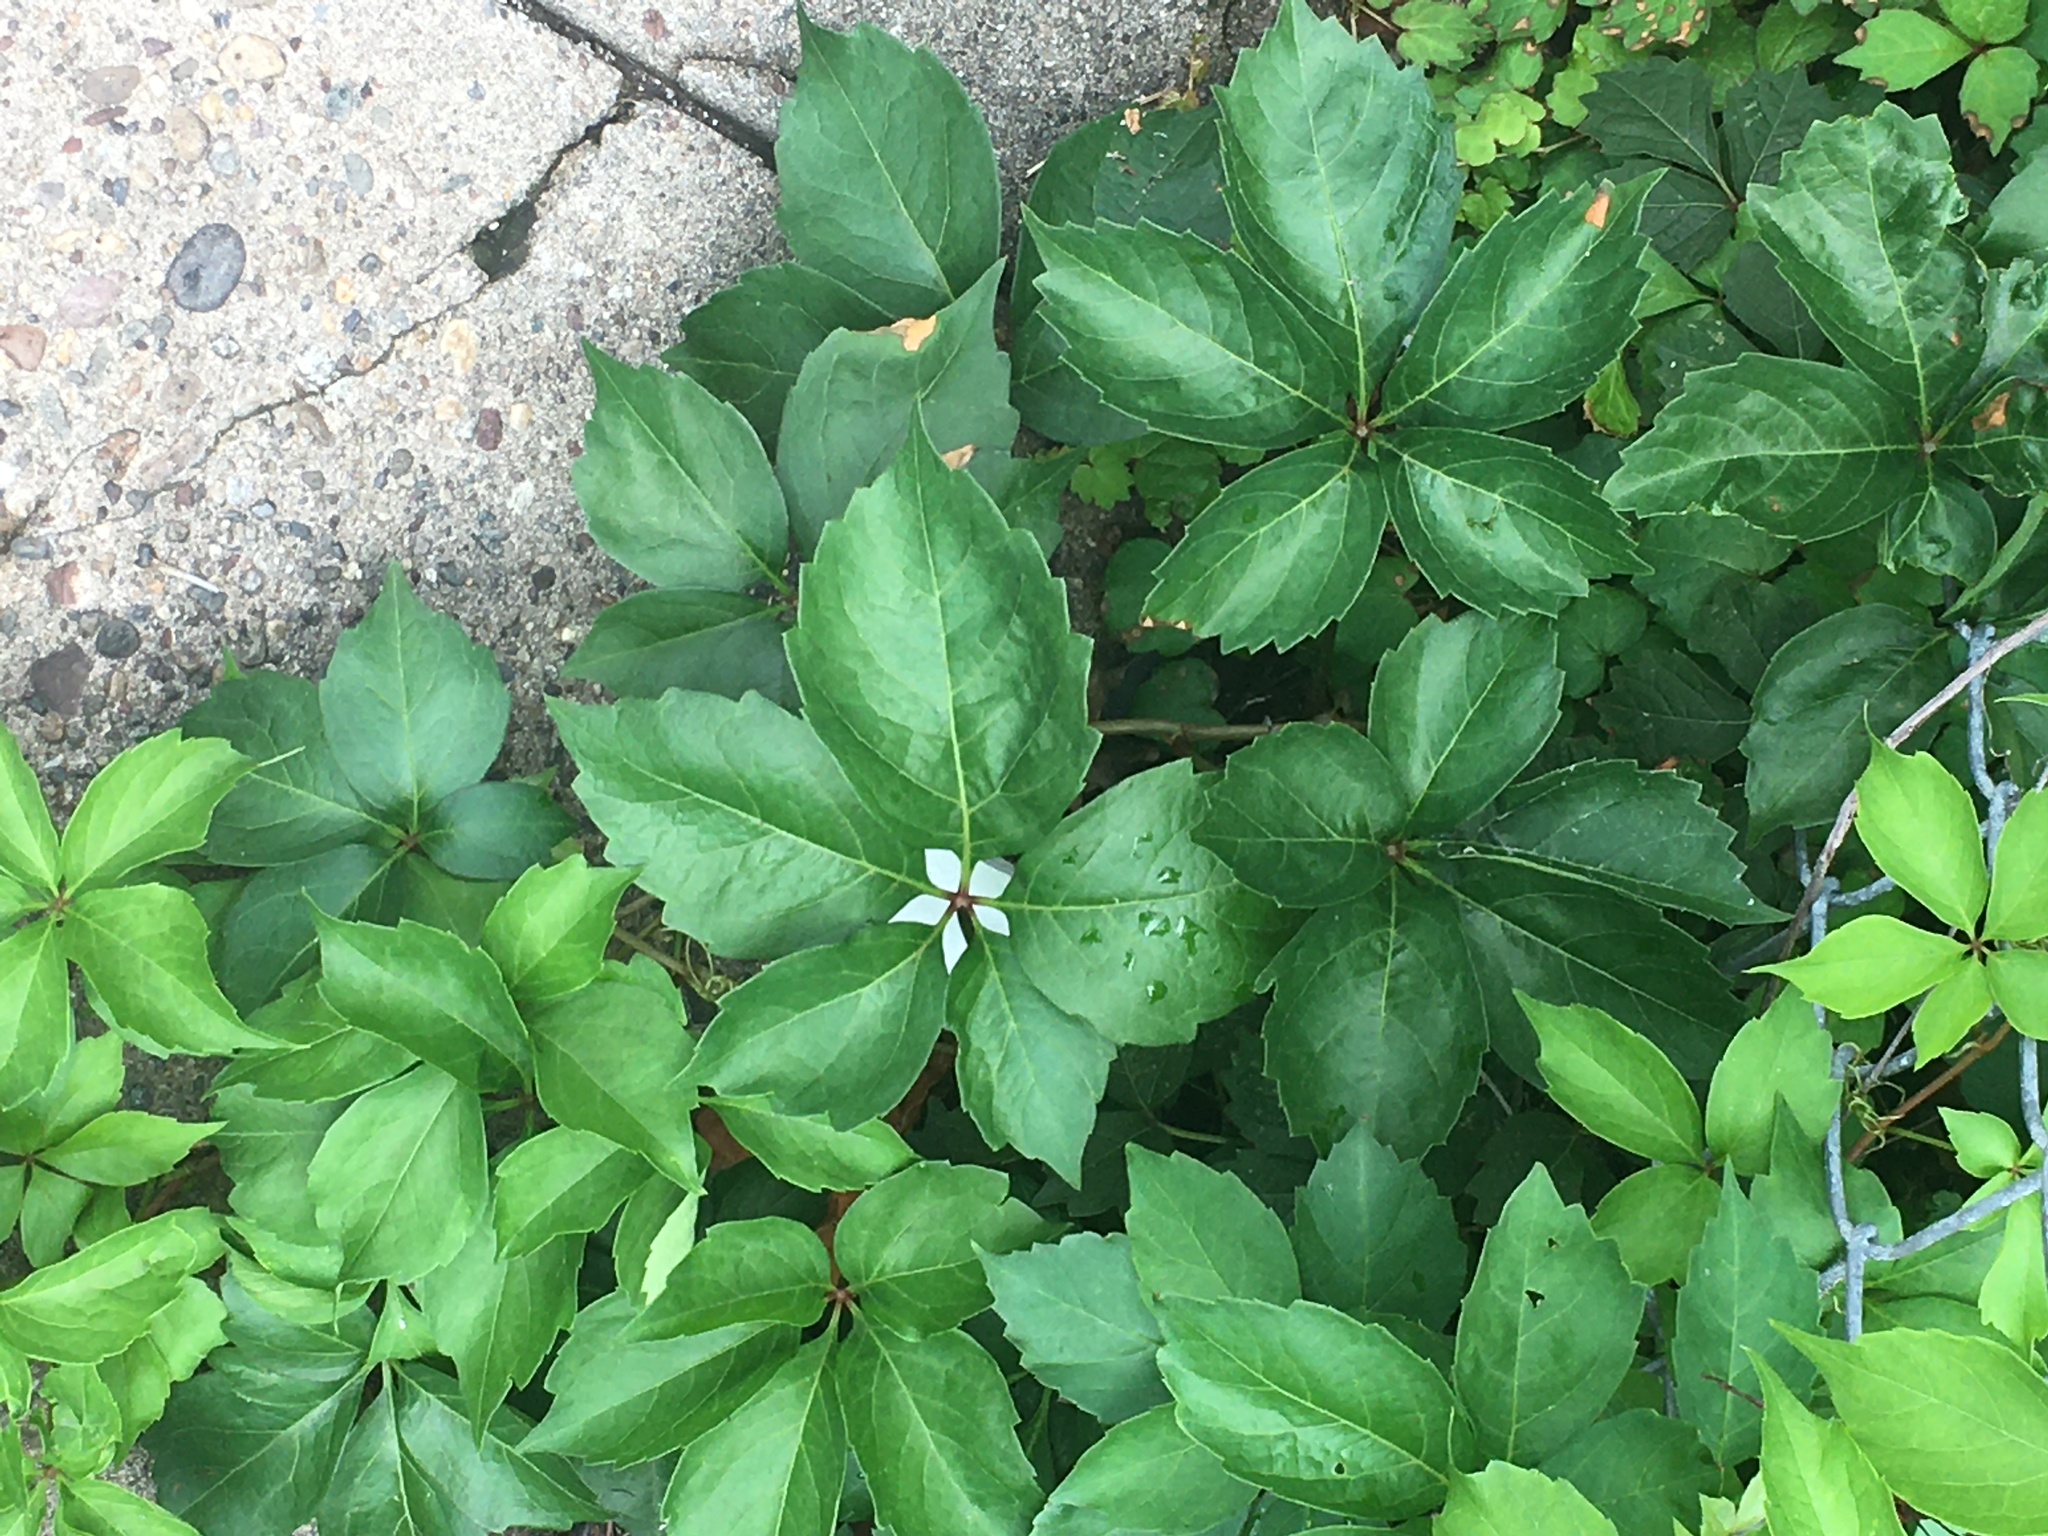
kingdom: Plantae
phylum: Tracheophyta
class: Magnoliopsida
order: Vitales
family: Vitaceae
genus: Parthenocissus
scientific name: Parthenocissus quinquefolia
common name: Virginia-creeper
